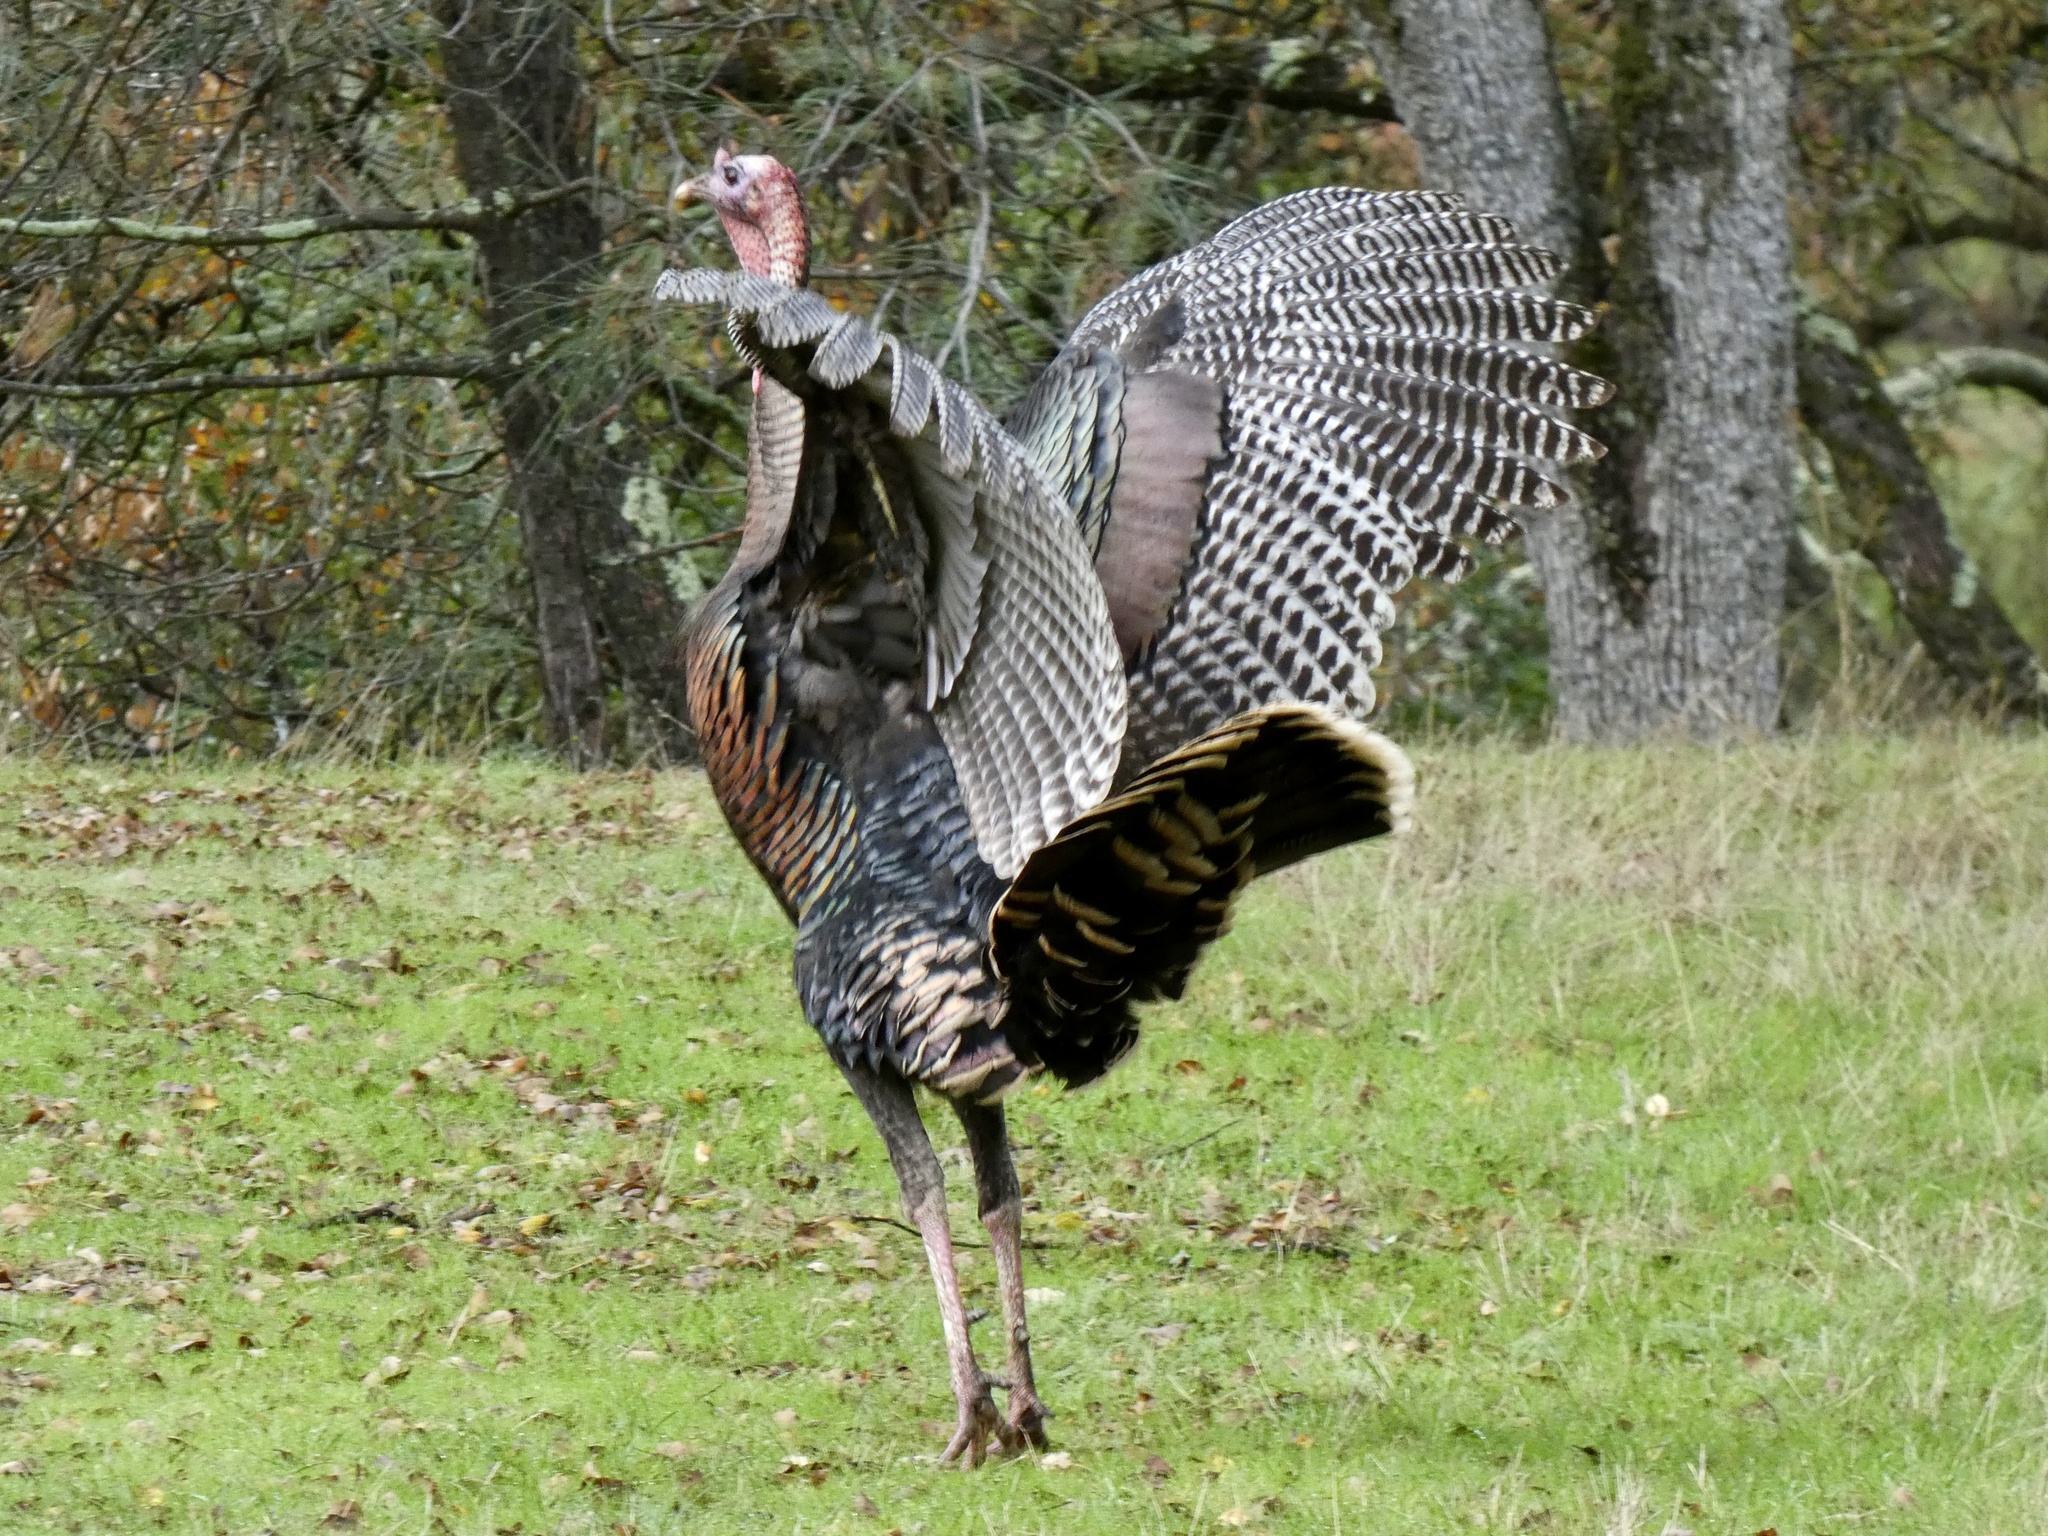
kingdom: Animalia
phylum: Chordata
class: Aves
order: Galliformes
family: Phasianidae
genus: Meleagris
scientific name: Meleagris gallopavo
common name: Wild turkey
